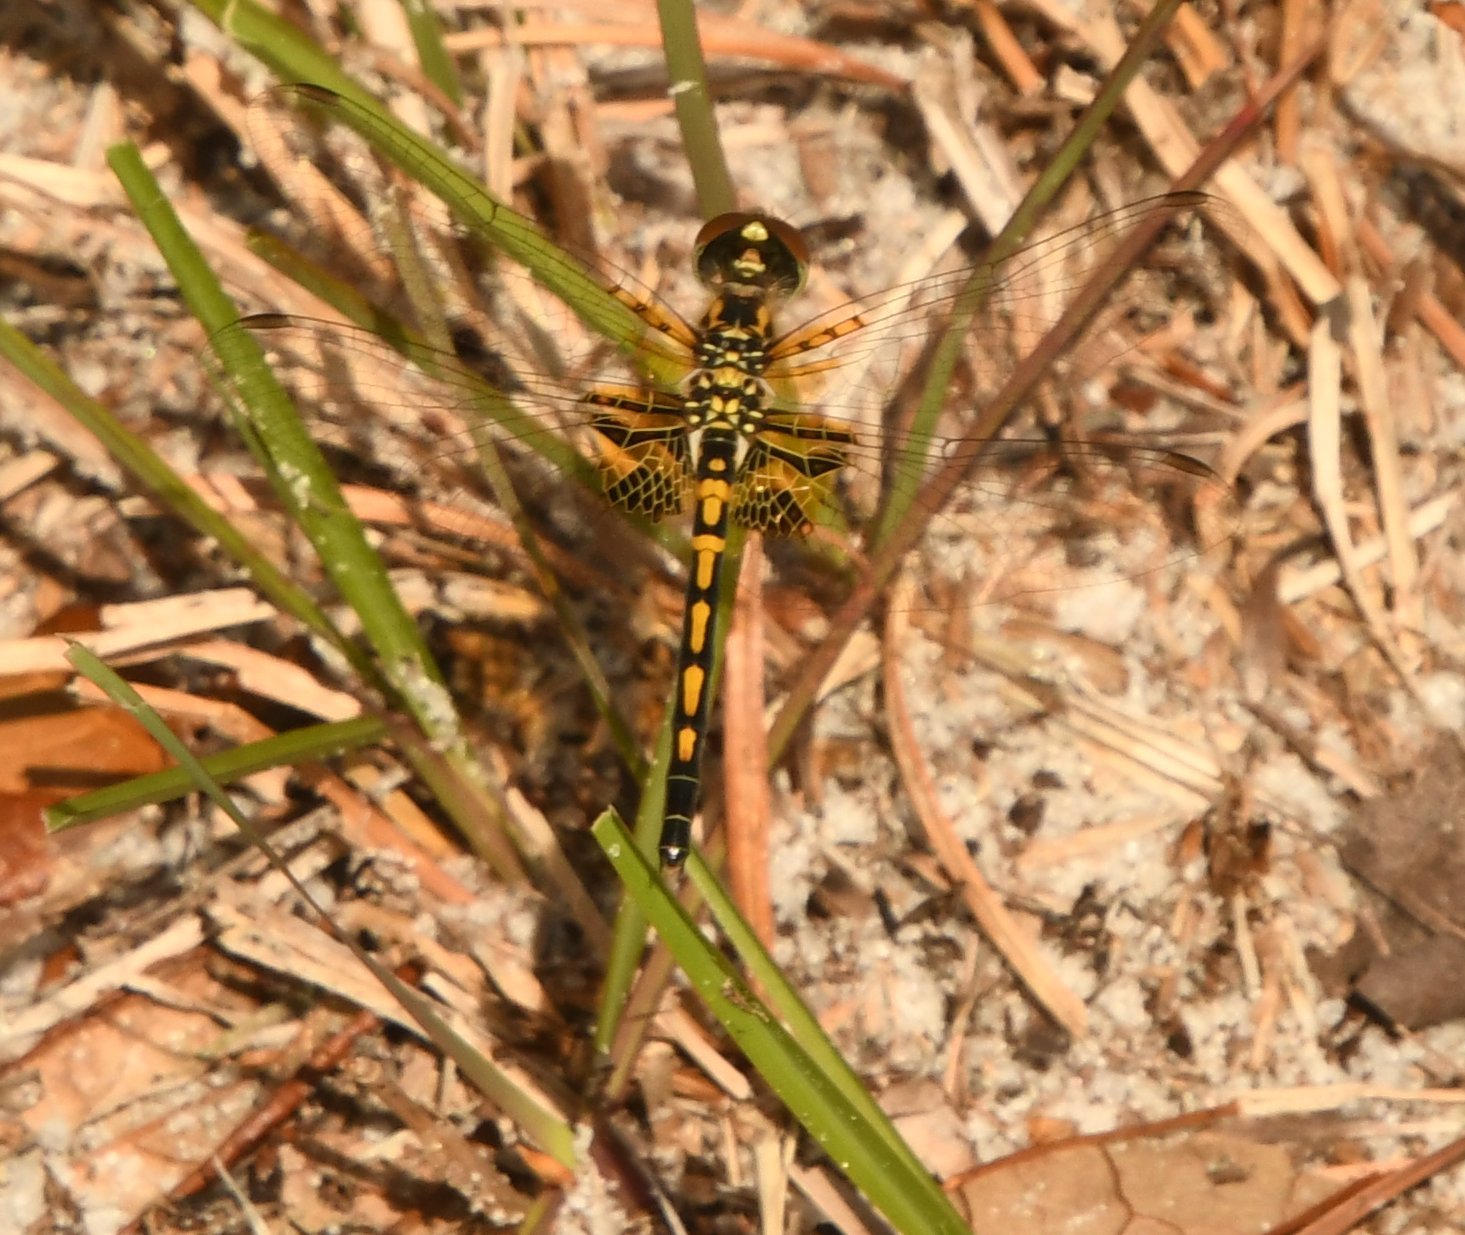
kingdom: Animalia
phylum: Arthropoda
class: Insecta
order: Odonata
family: Libellulidae
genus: Celithemis
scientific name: Celithemis ornata
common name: Ornate pennant
